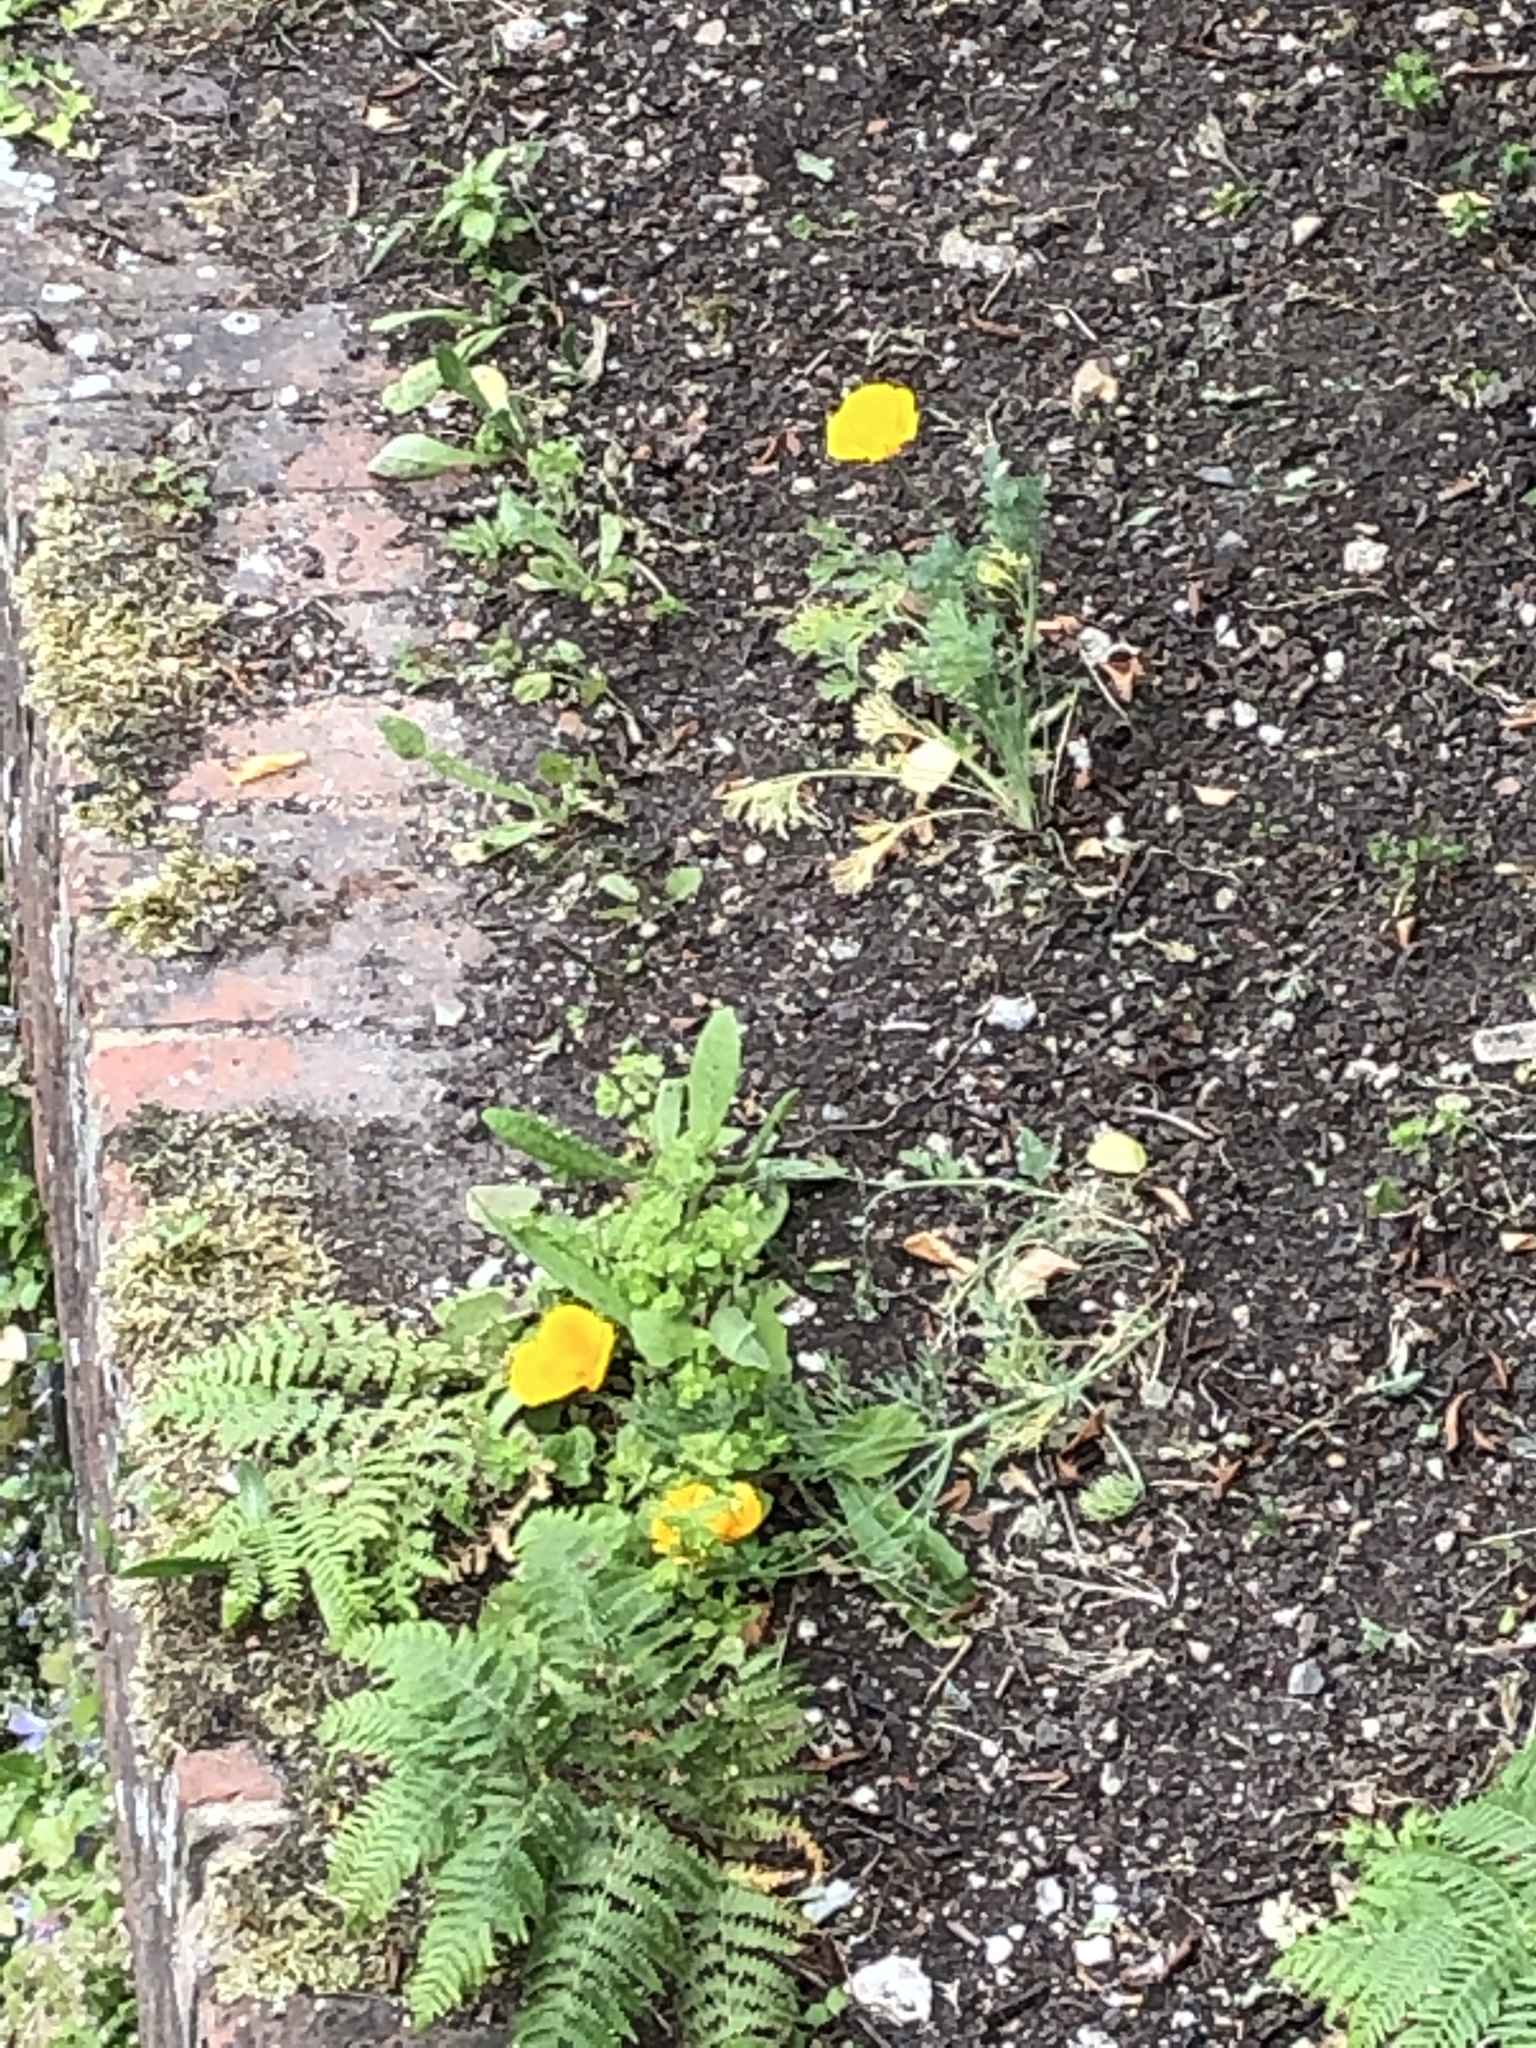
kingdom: Plantae
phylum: Tracheophyta
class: Magnoliopsida
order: Ranunculales
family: Papaveraceae
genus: Eschscholzia
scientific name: Eschscholzia californica
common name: California poppy
